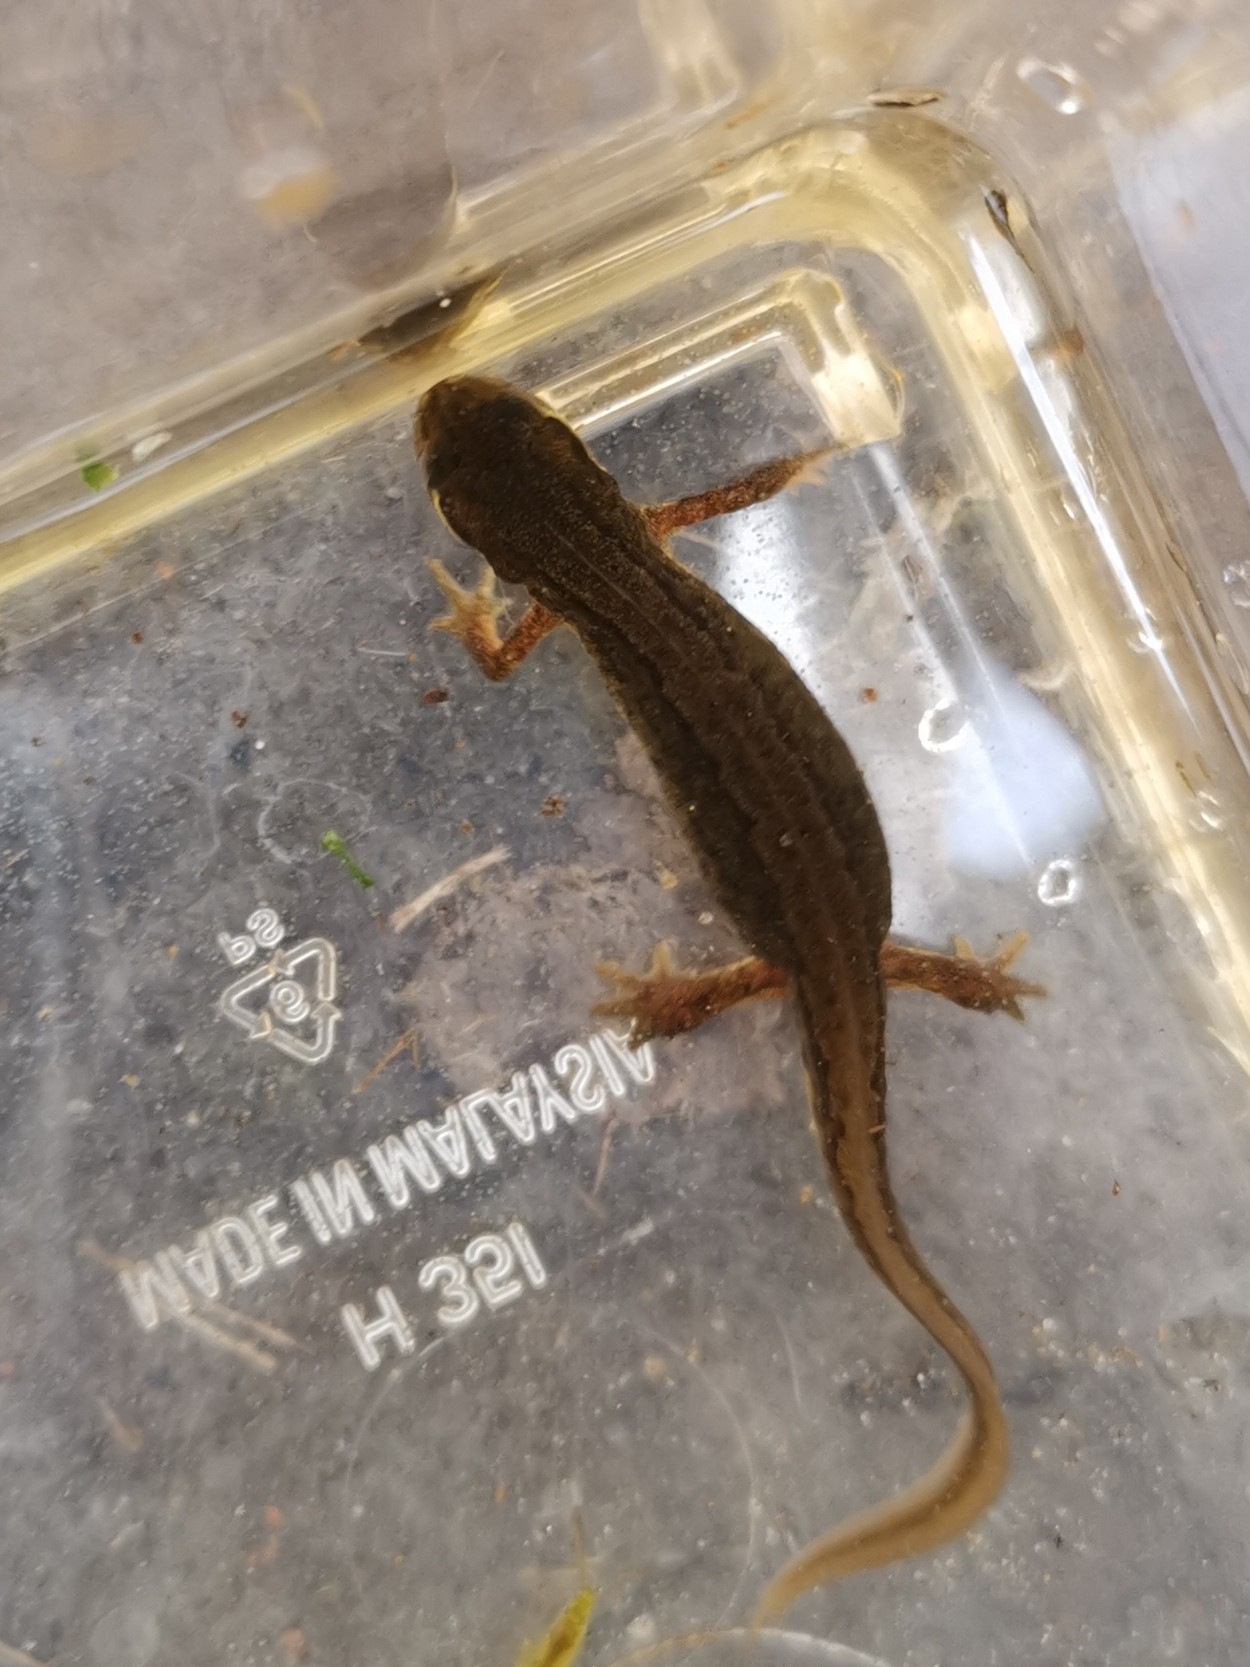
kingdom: Animalia
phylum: Chordata
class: Amphibia
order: Caudata
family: Salamandridae
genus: Lissotriton
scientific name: Lissotriton vulgaris
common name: Smooth newt
